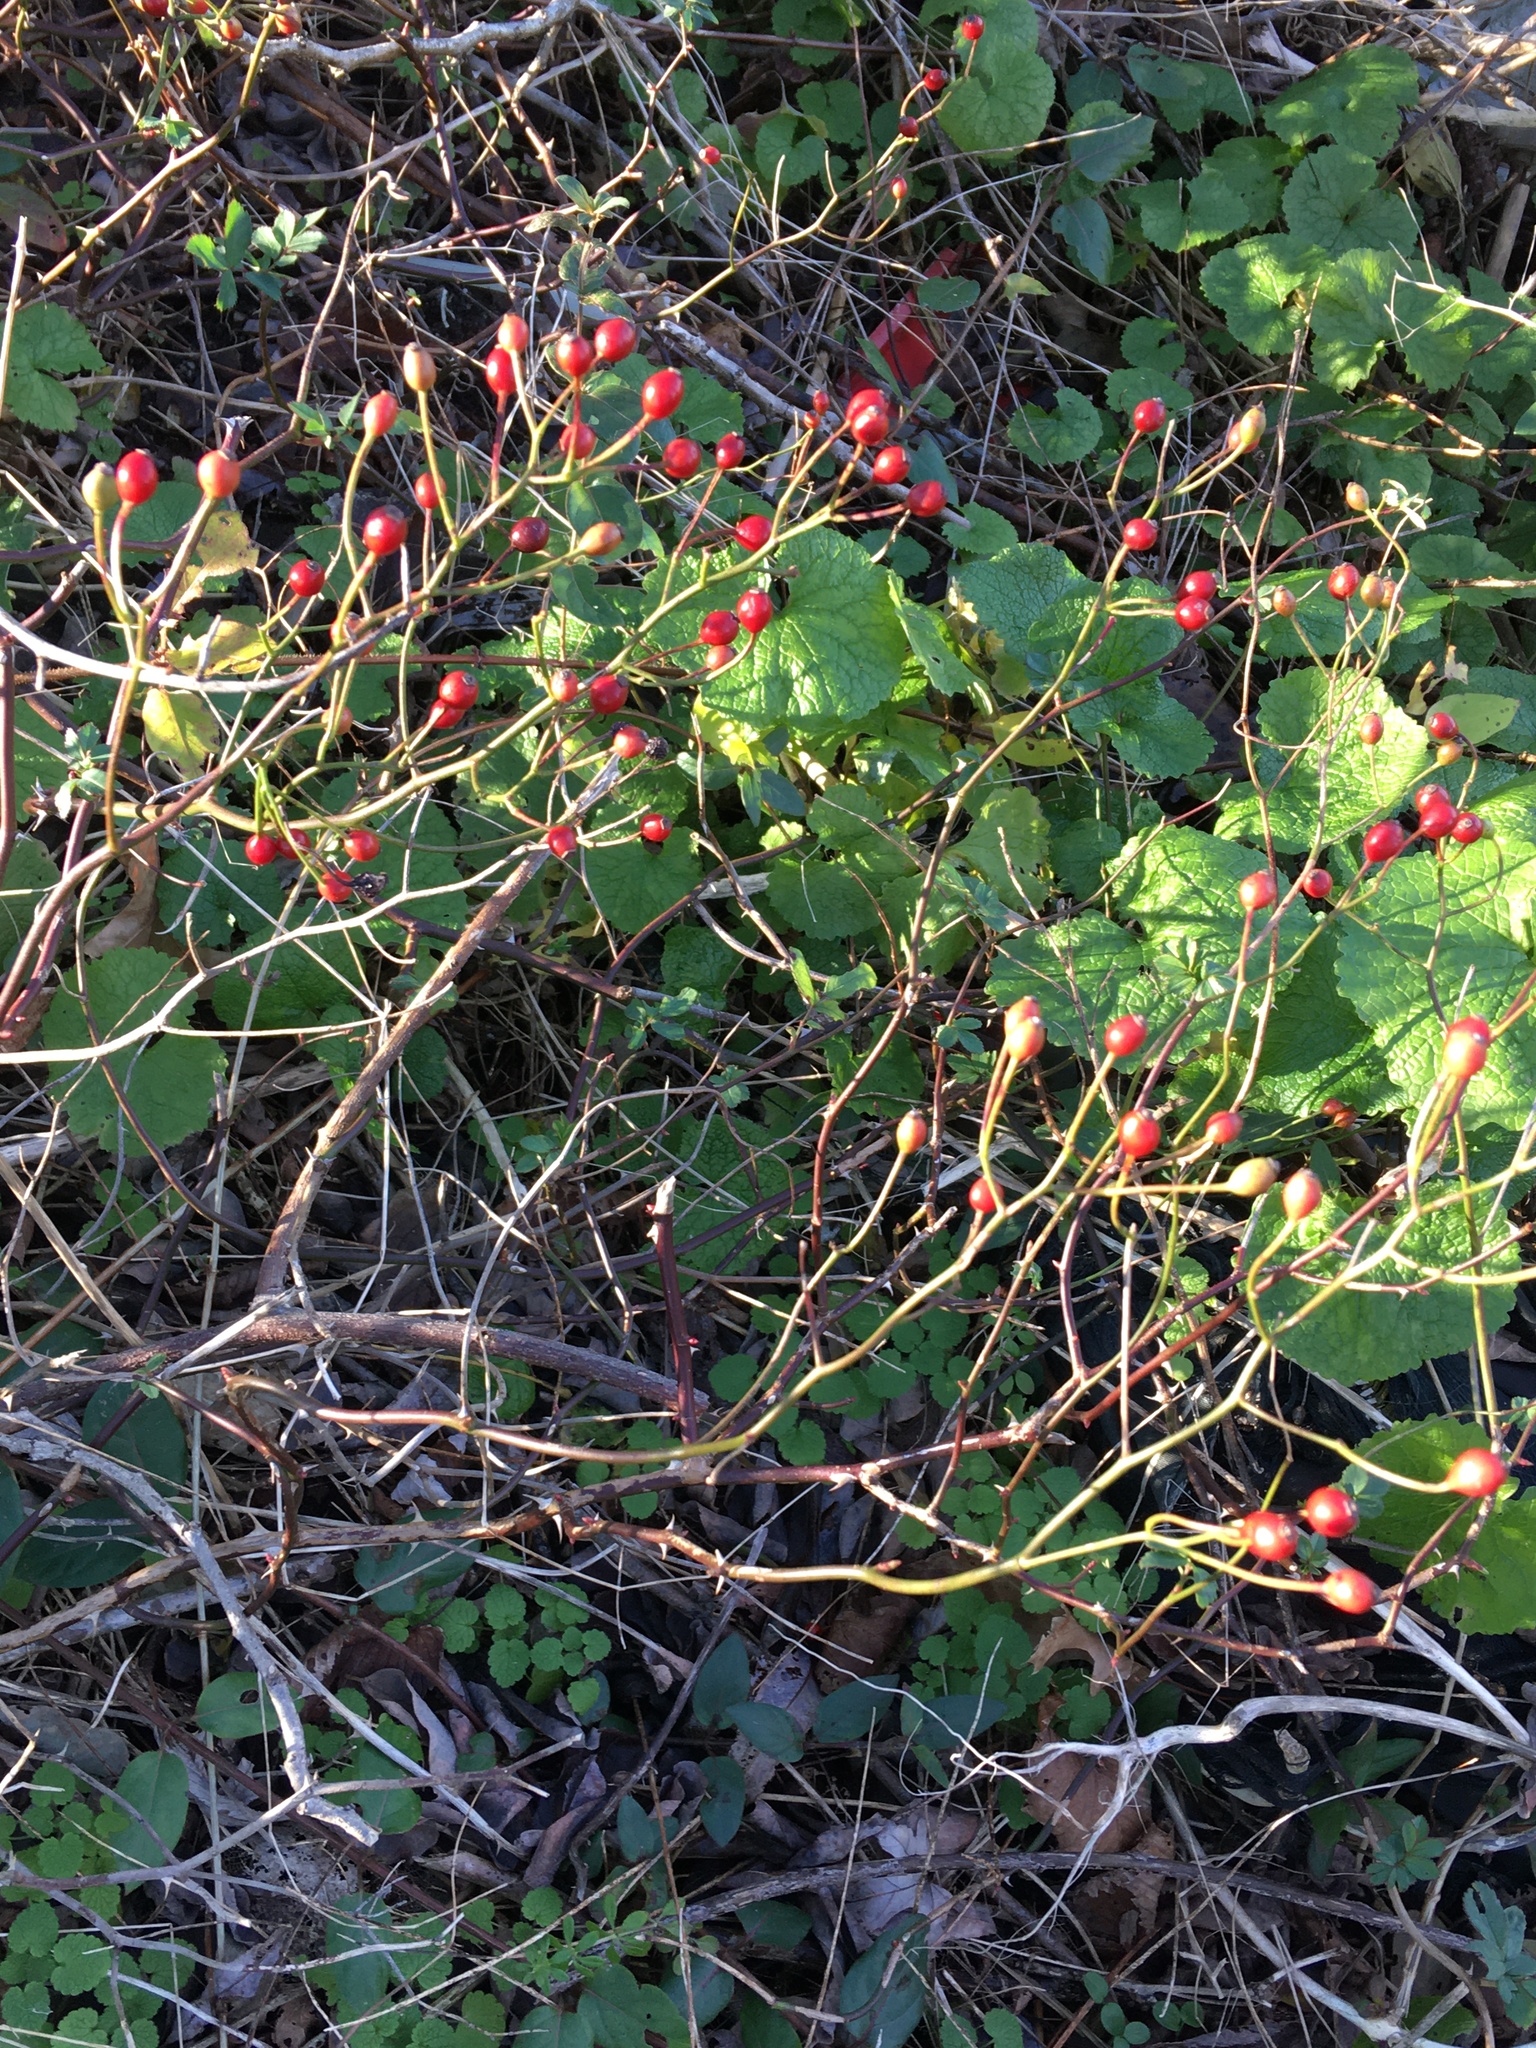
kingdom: Plantae
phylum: Tracheophyta
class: Magnoliopsida
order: Rosales
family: Rosaceae
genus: Rosa
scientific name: Rosa multiflora
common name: Multiflora rose
